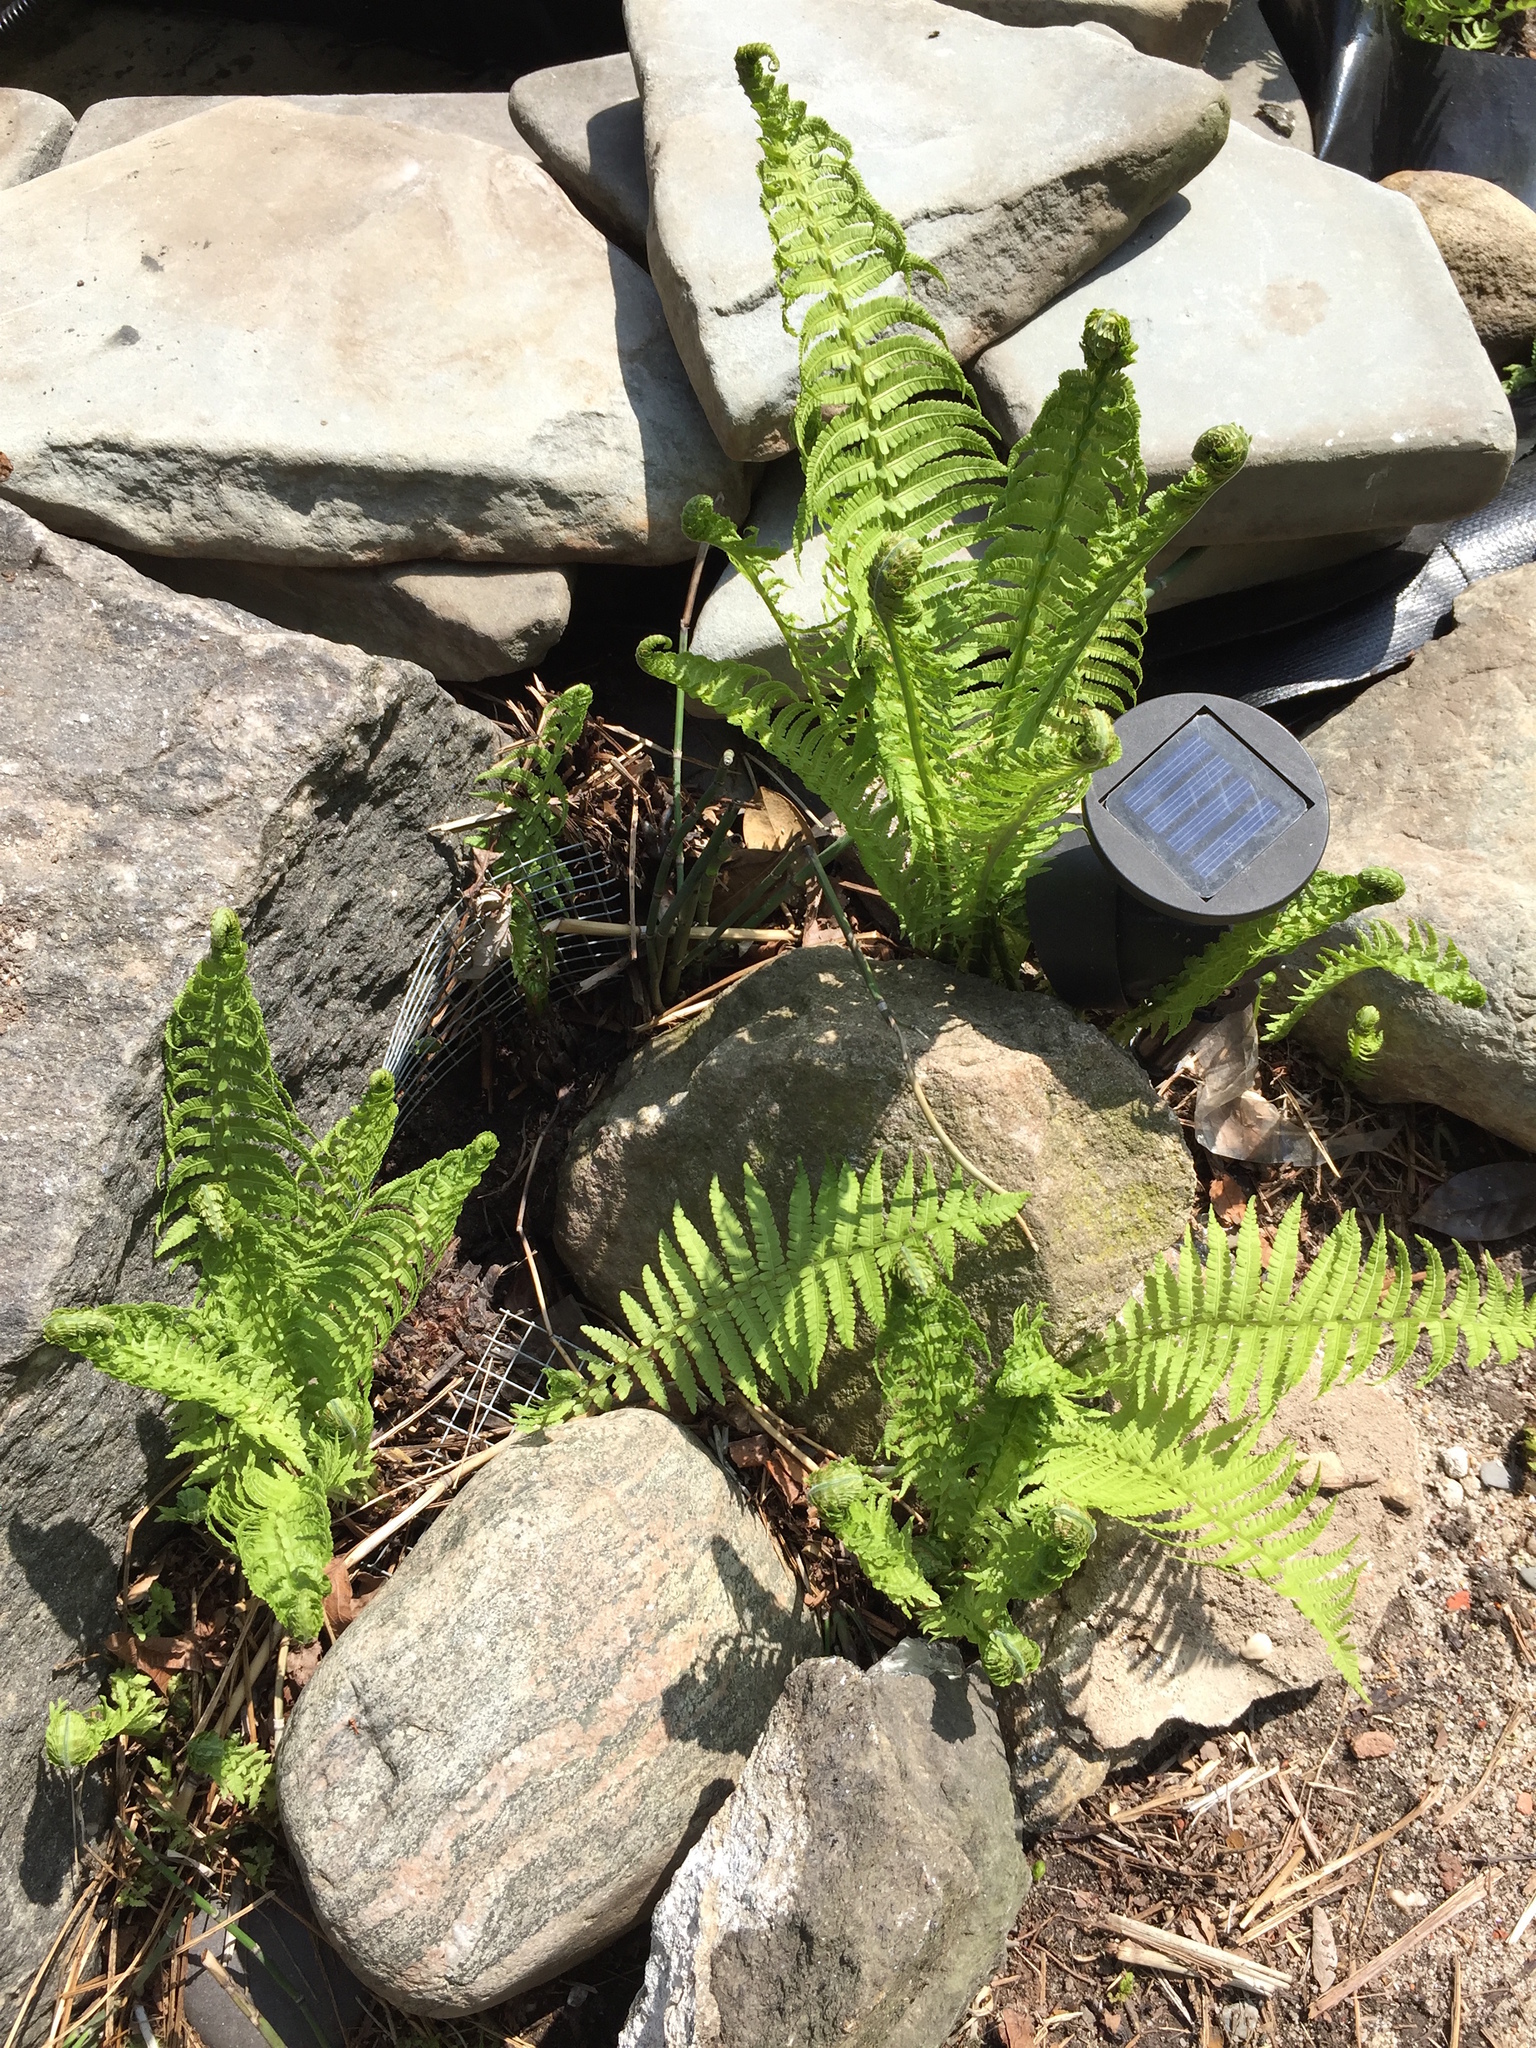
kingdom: Plantae
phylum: Tracheophyta
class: Polypodiopsida
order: Polypodiales
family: Onocleaceae
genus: Matteuccia
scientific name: Matteuccia struthiopteris
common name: Ostrich fern
